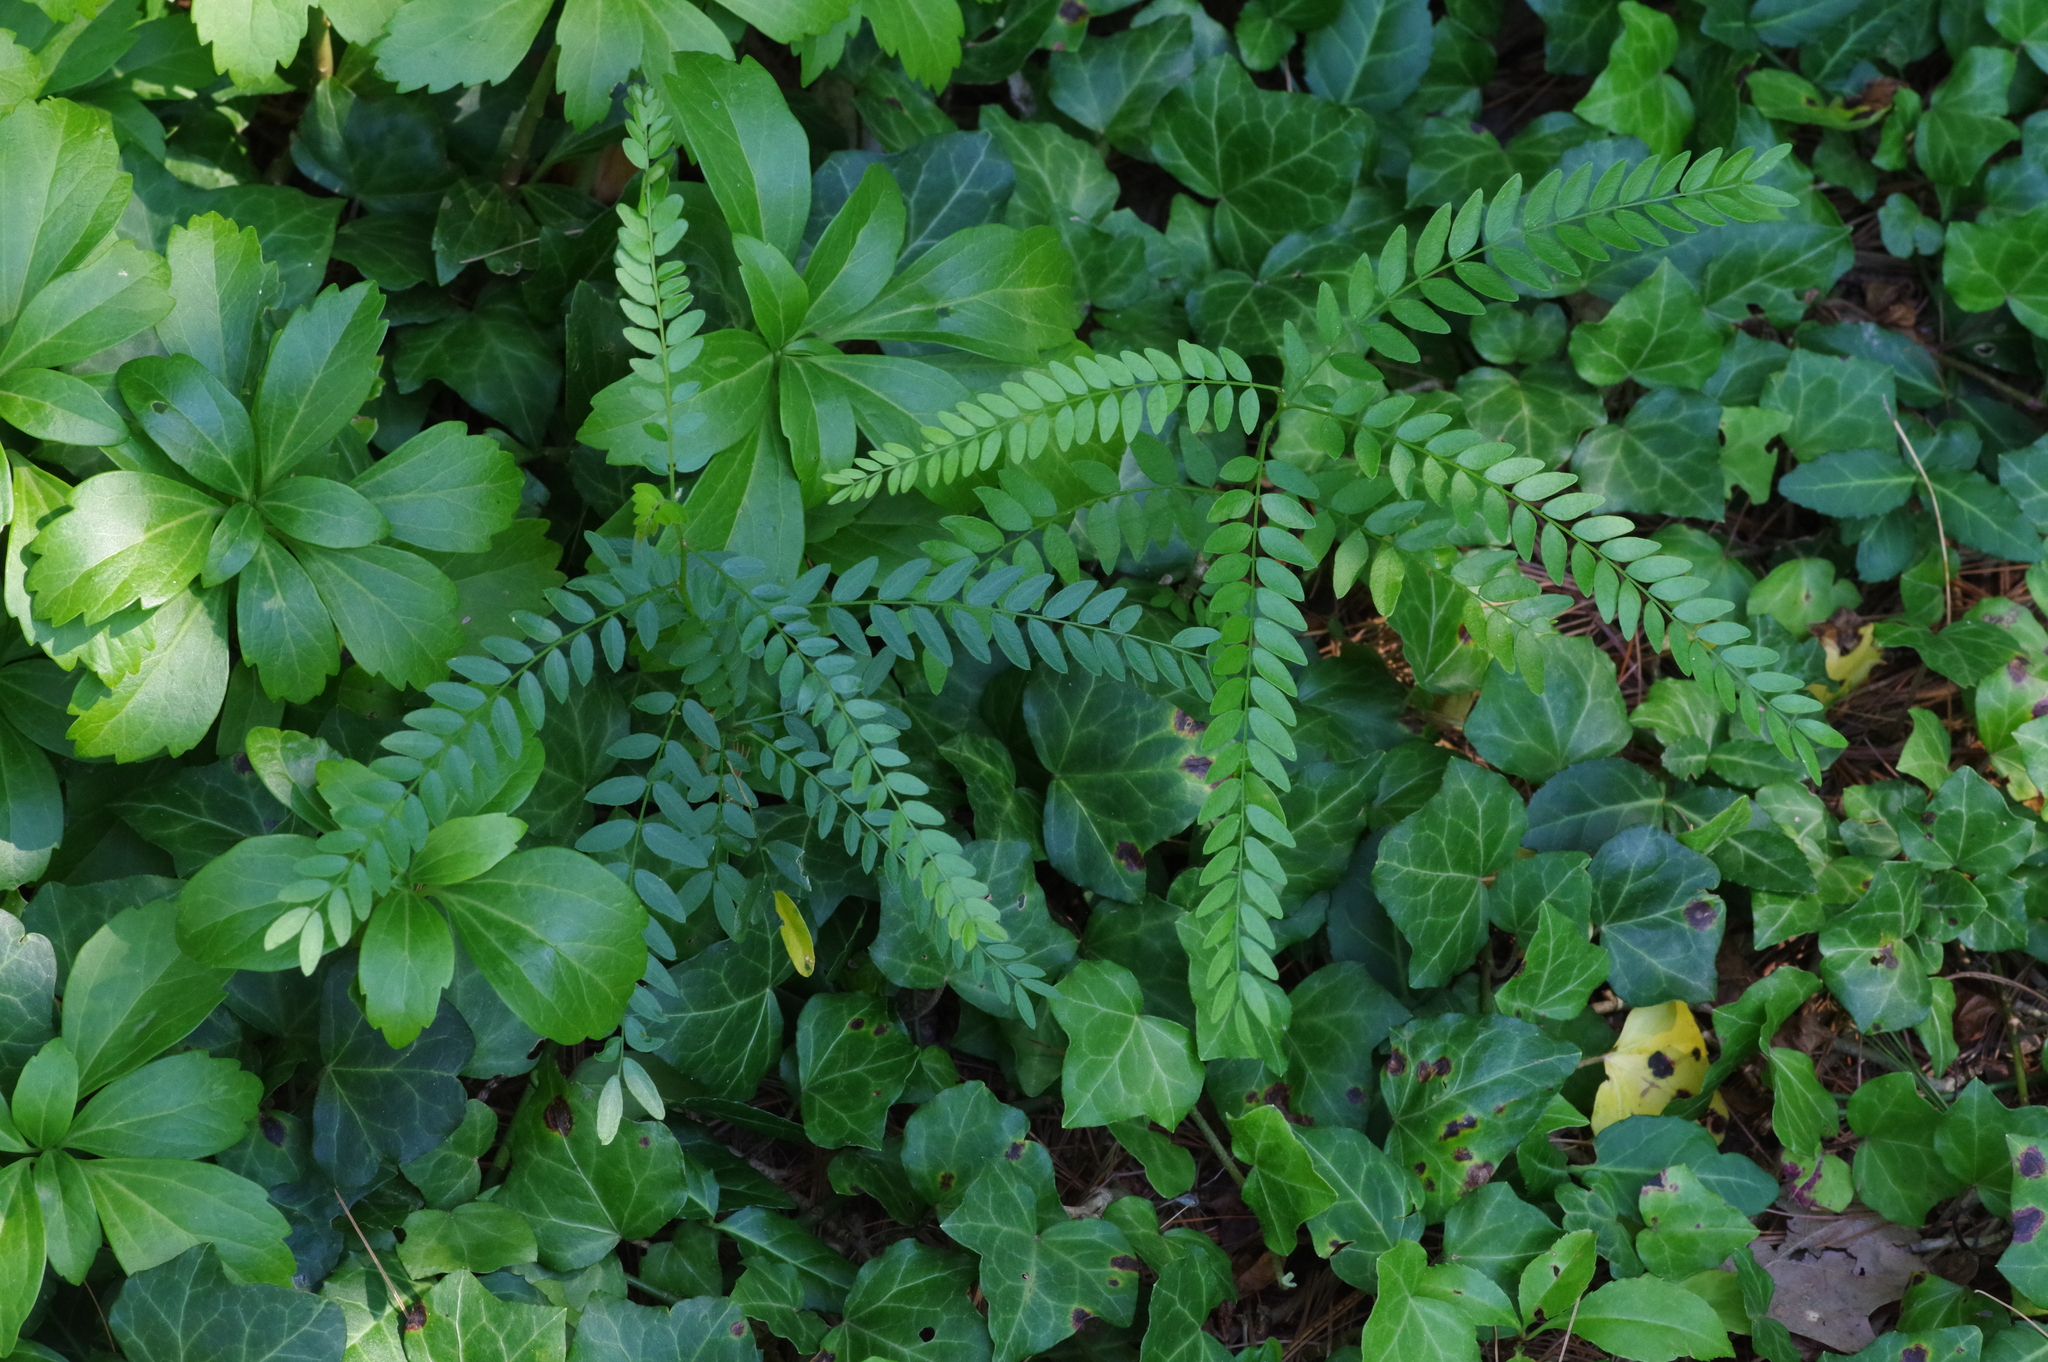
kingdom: Plantae
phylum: Tracheophyta
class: Magnoliopsida
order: Fabales
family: Fabaceae
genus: Gleditsia
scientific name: Gleditsia triacanthos
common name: Common honeylocust
